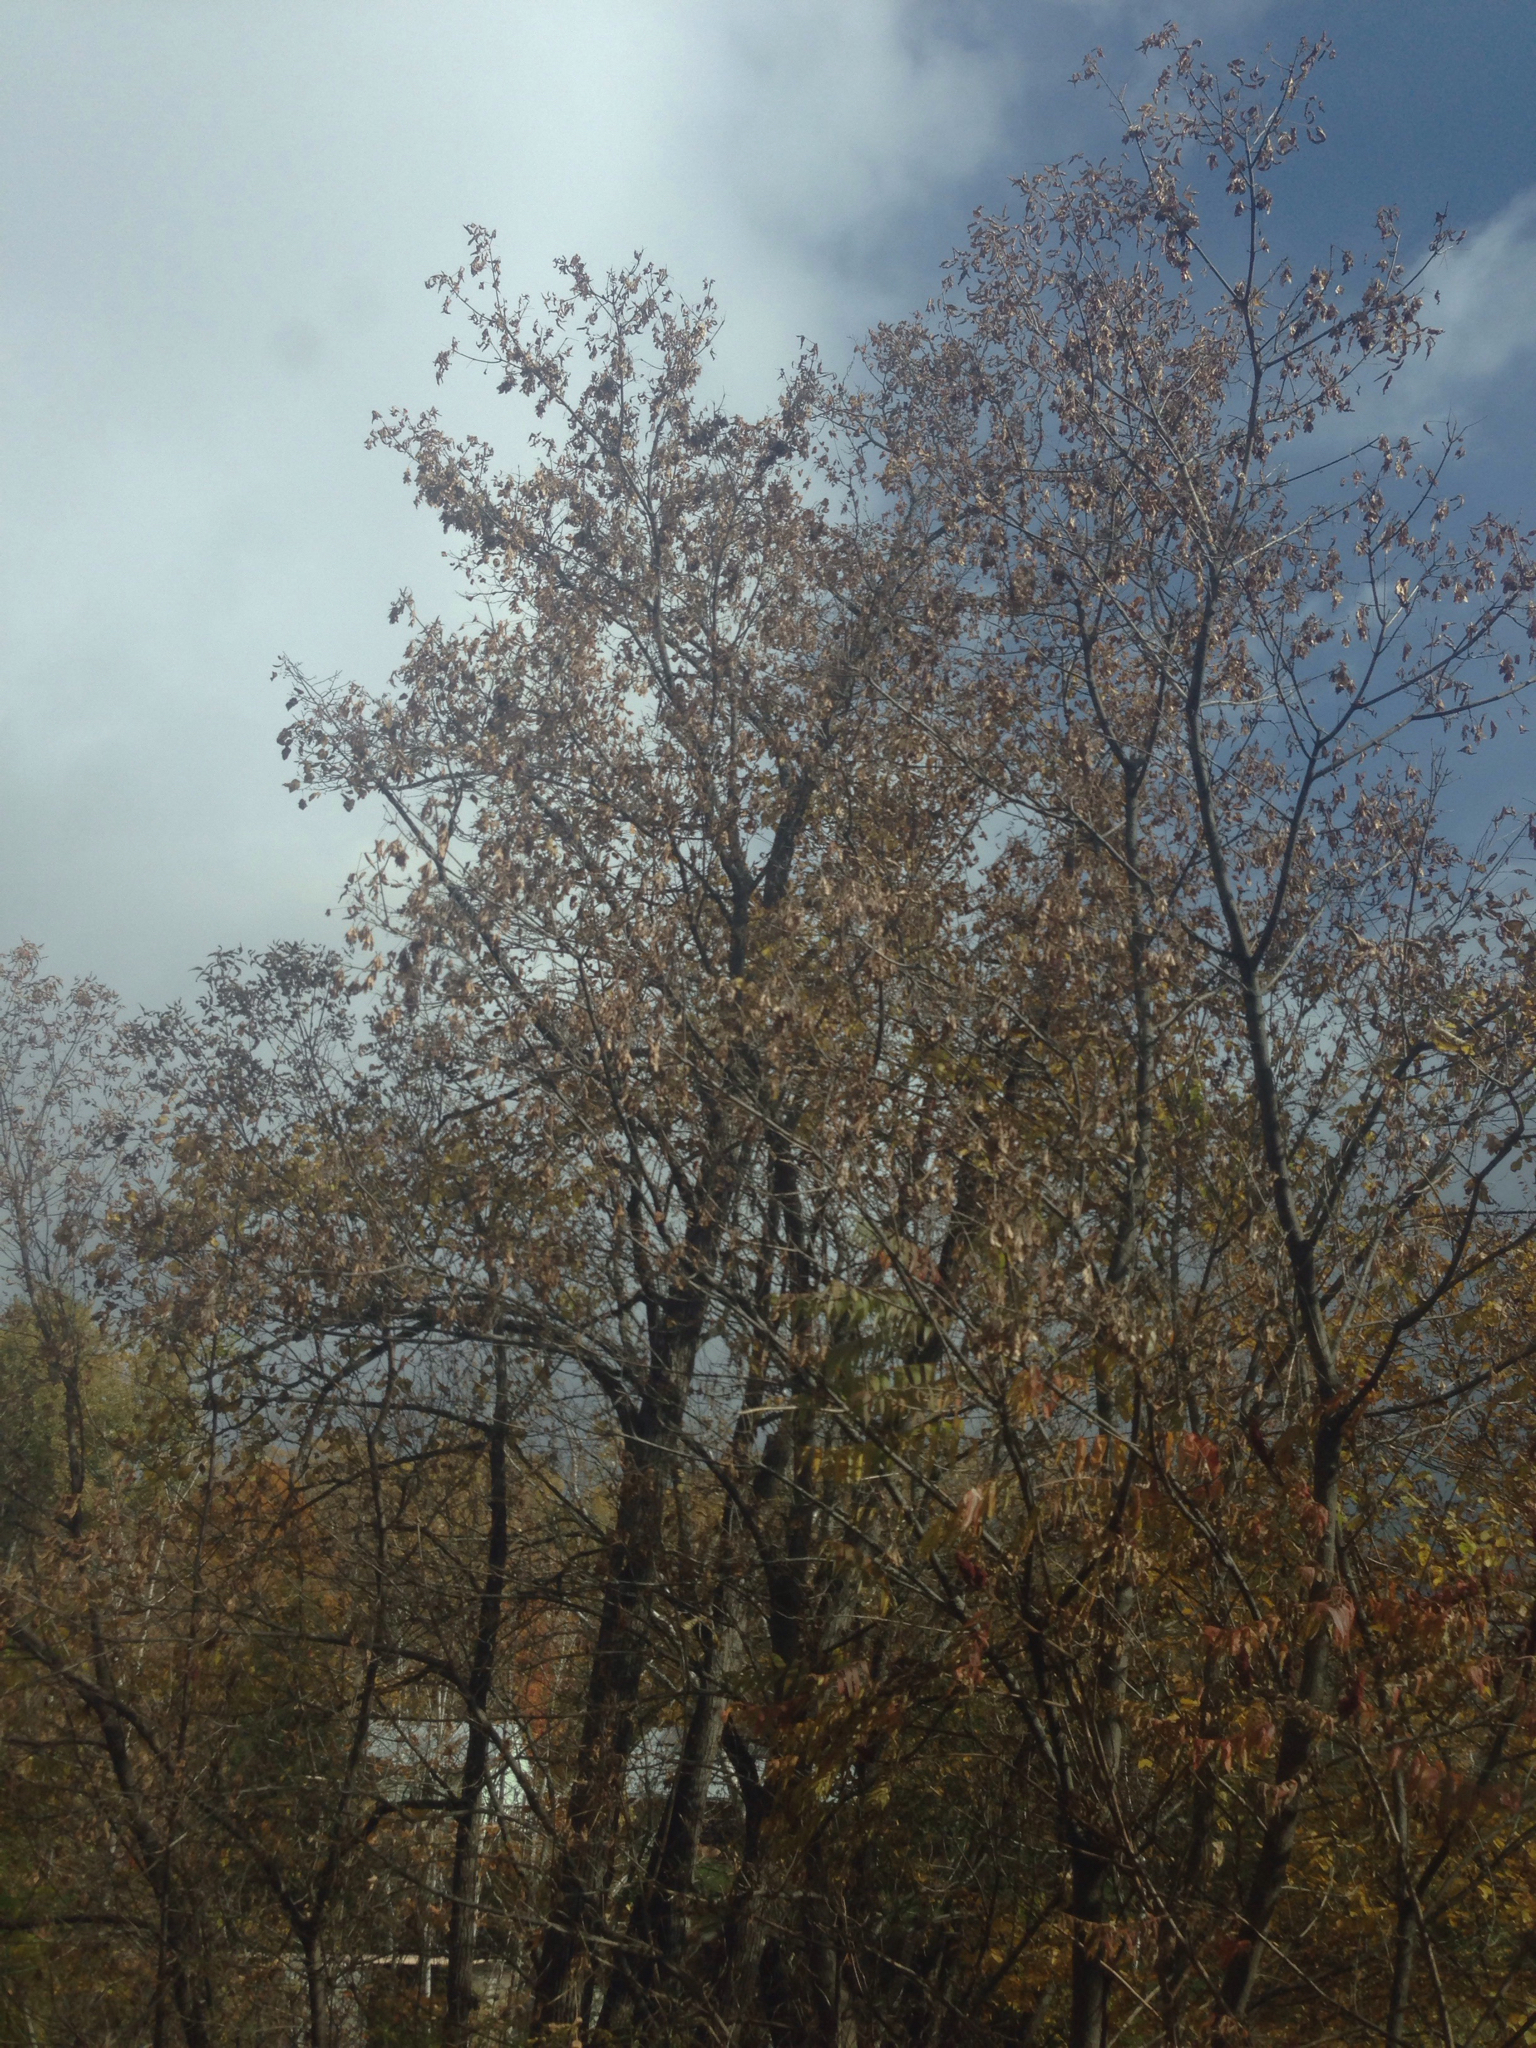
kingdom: Plantae
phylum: Tracheophyta
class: Magnoliopsida
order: Sapindales
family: Sapindaceae
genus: Acer
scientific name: Acer negundo
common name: Ashleaf maple
